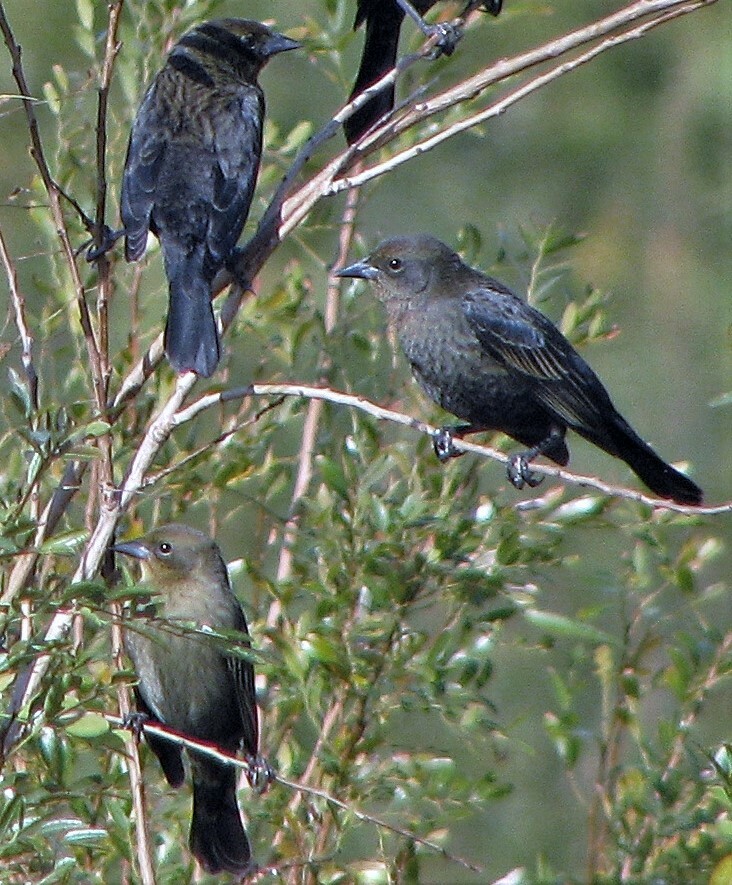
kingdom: Animalia
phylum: Chordata
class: Aves
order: Passeriformes
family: Icteridae
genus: Chrysomus
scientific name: Chrysomus ruficapillus
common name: Chestnut-capped blackbird
